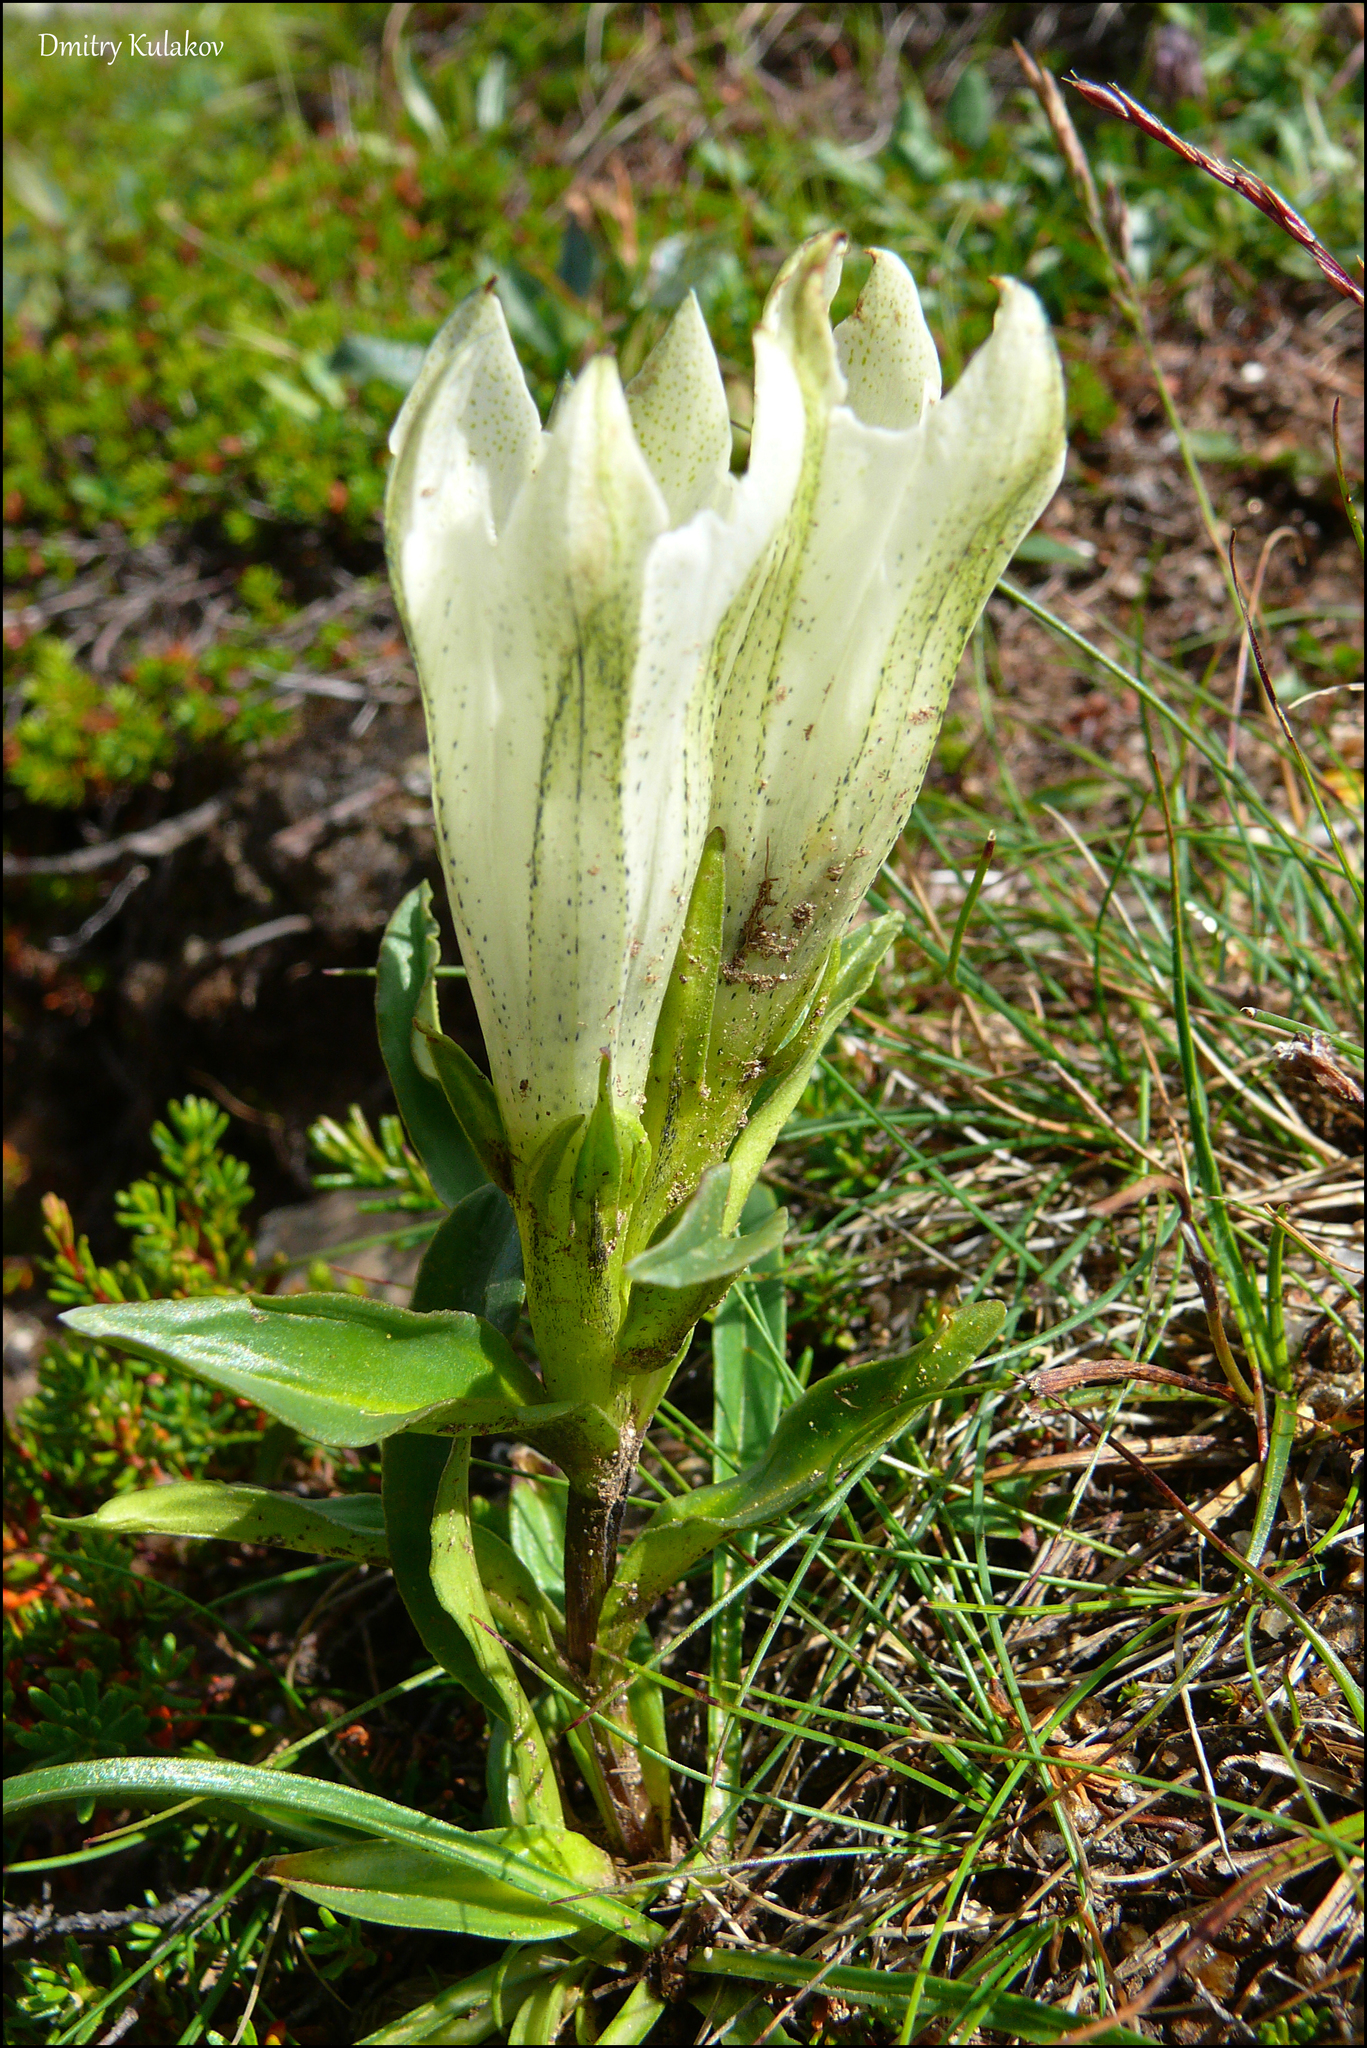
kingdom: Plantae
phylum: Tracheophyta
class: Magnoliopsida
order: Gentianales
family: Gentianaceae
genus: Gentiana
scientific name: Gentiana algida
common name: Arctic gentian
